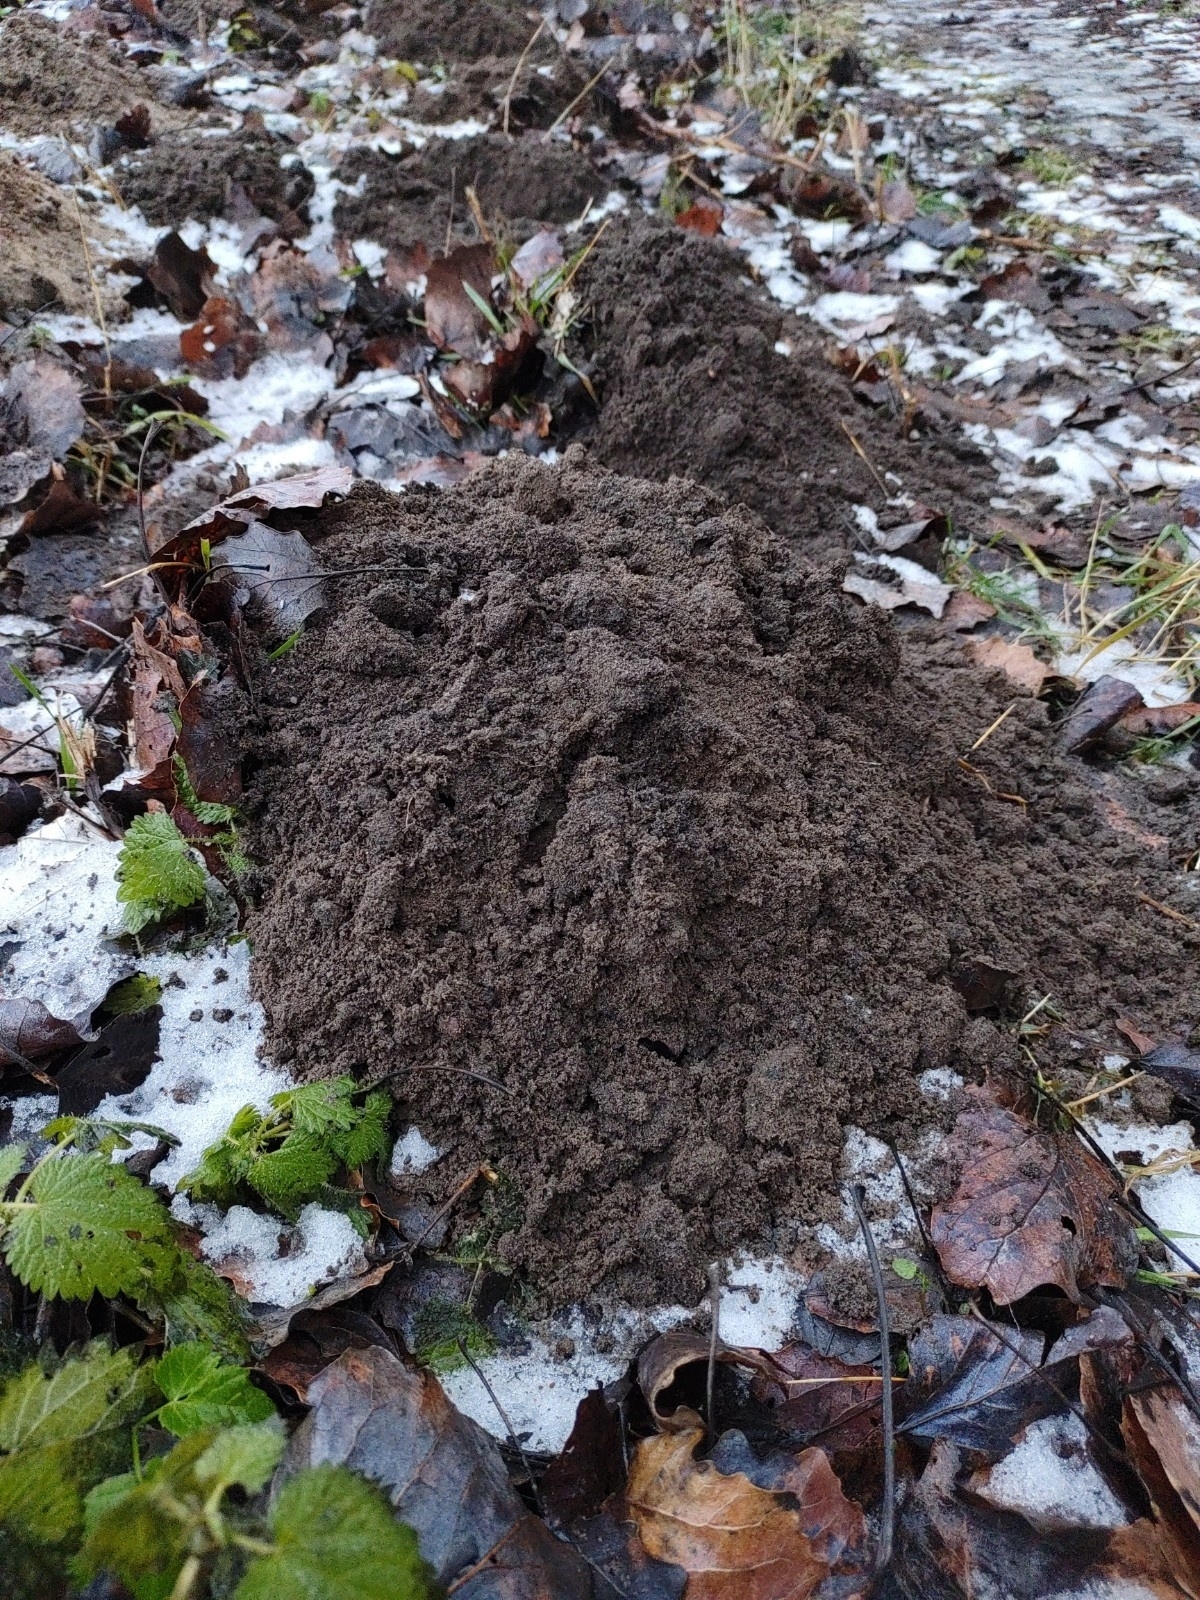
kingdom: Animalia
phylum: Chordata
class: Mammalia
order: Soricomorpha
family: Talpidae
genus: Talpa
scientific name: Talpa europaea
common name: European mole
